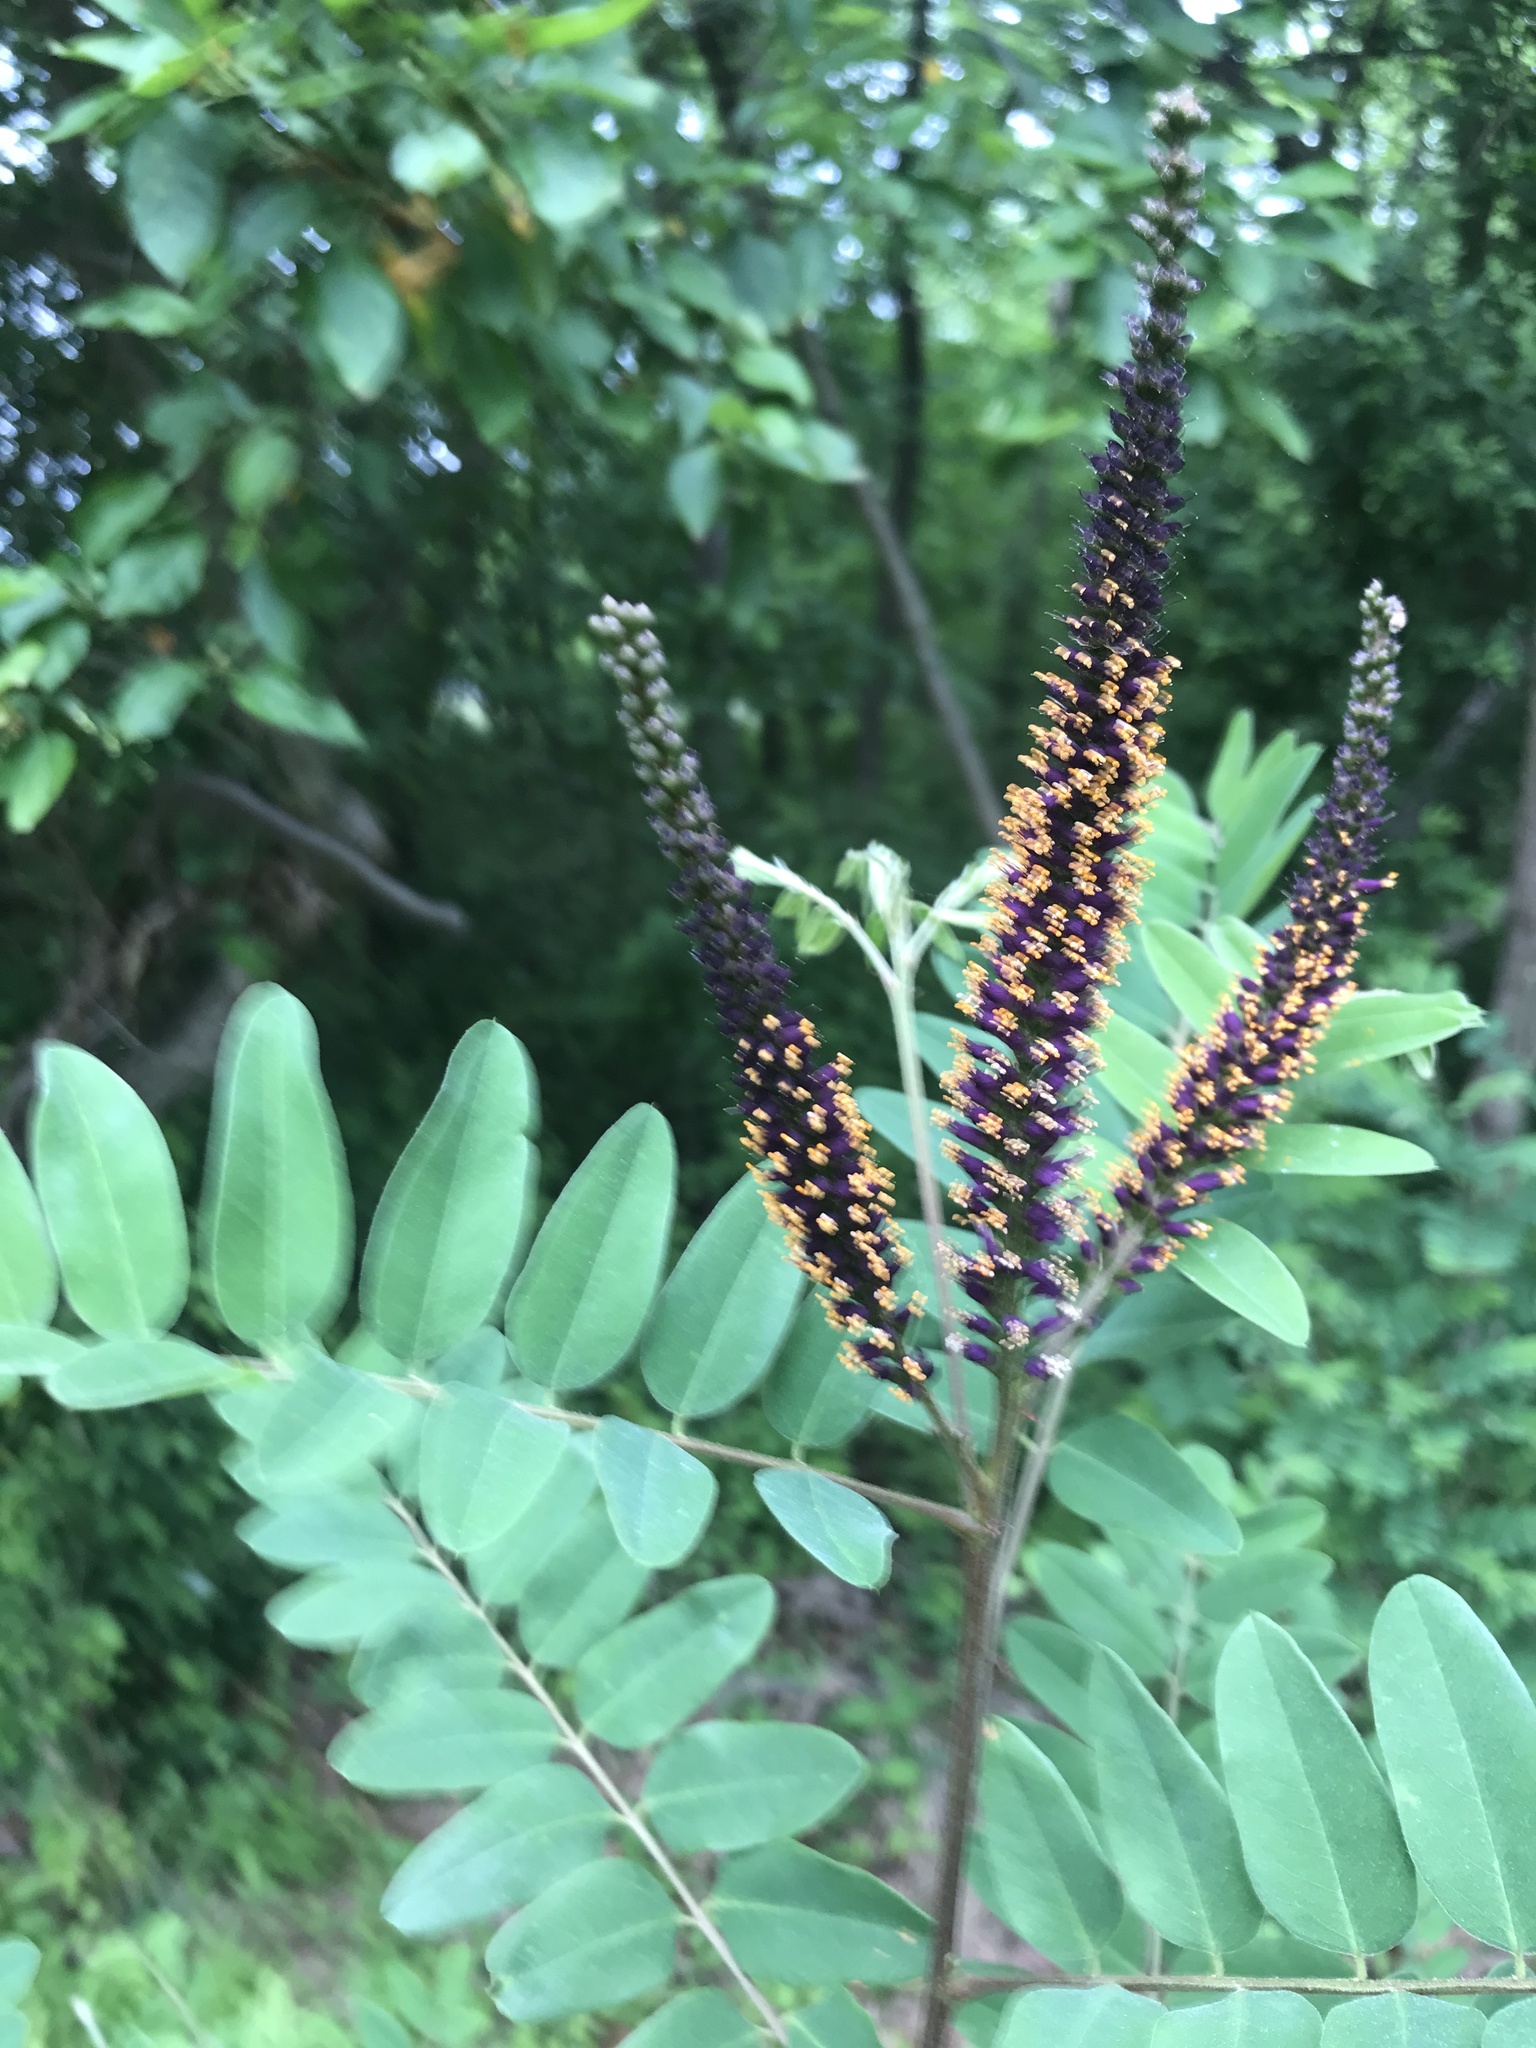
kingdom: Plantae
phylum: Tracheophyta
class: Magnoliopsida
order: Fabales
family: Fabaceae
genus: Amorpha
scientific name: Amorpha fruticosa
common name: False indigo
